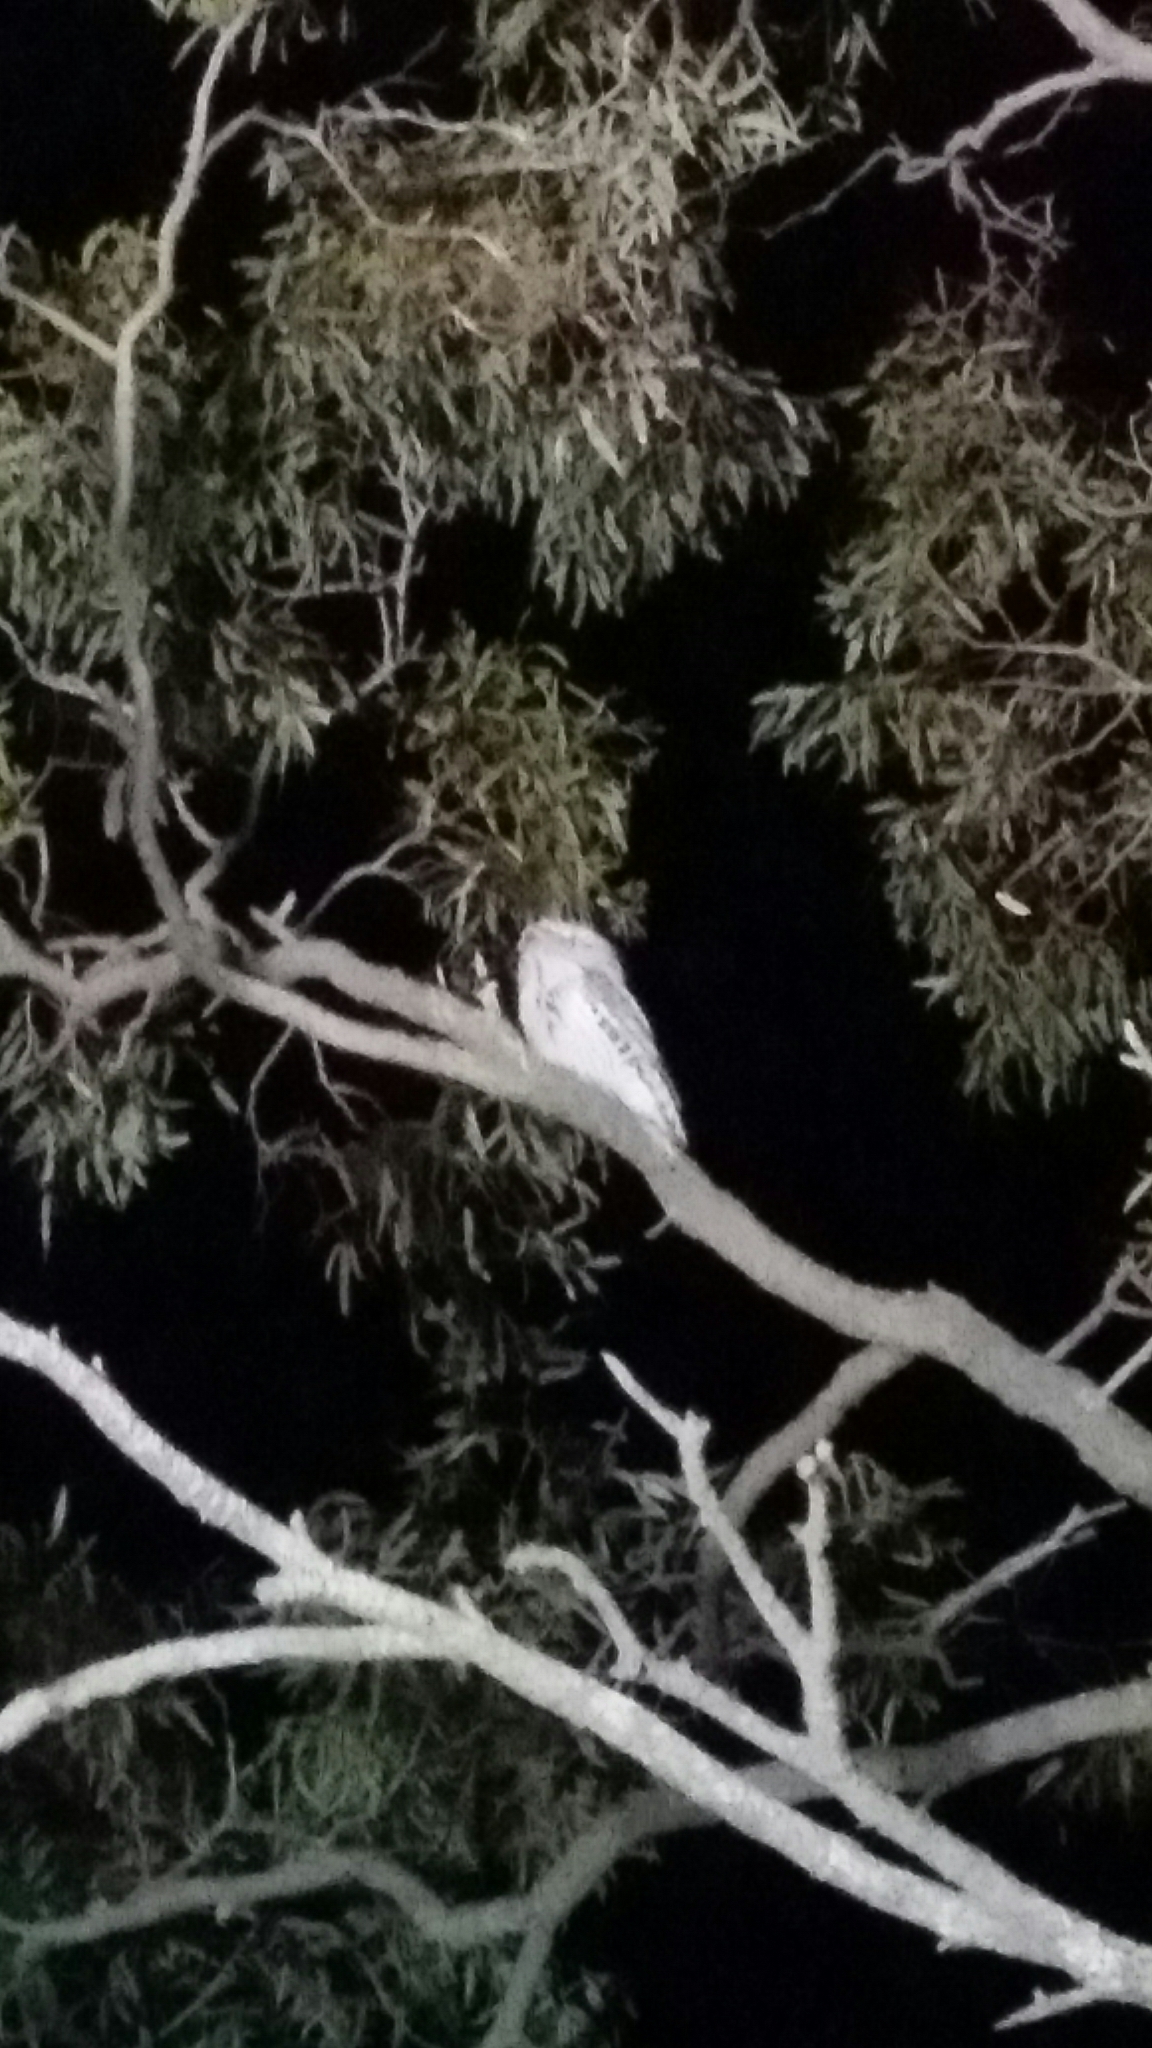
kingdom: Animalia
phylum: Chordata
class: Aves
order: Caprimulgiformes
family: Podargidae
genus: Podargus
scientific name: Podargus strigoides
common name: Tawny frogmouth
